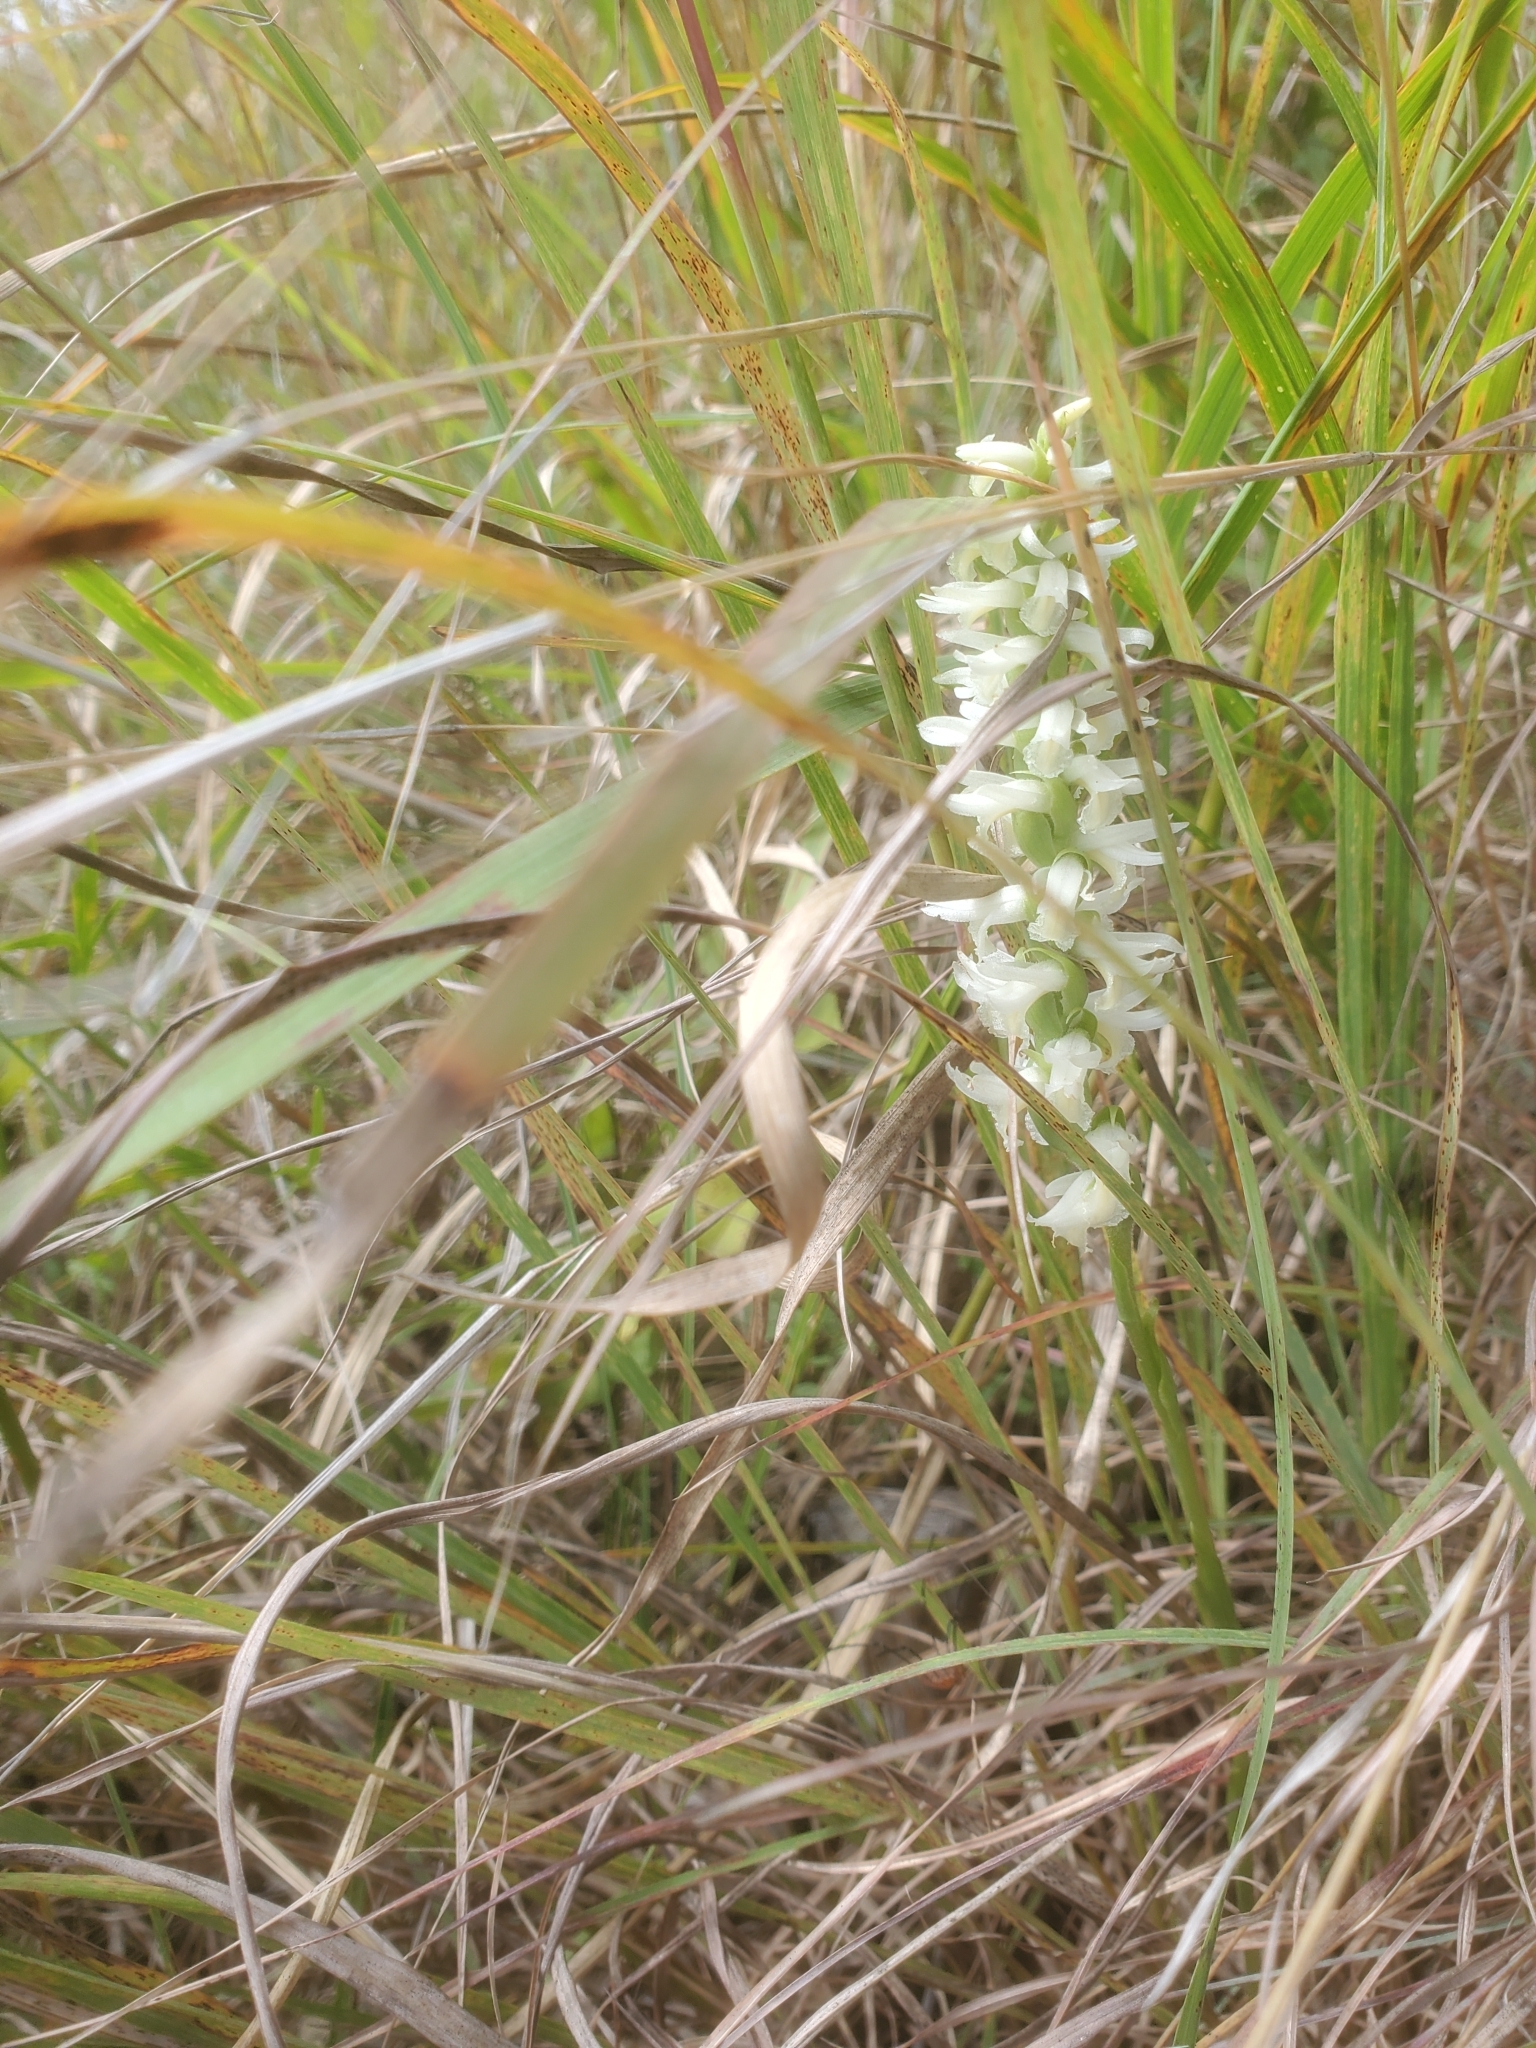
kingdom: Plantae
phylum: Tracheophyta
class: Liliopsida
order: Asparagales
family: Orchidaceae
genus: Spiranthes
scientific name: Spiranthes magnicamporum
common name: Great plains ladies'-tresses
